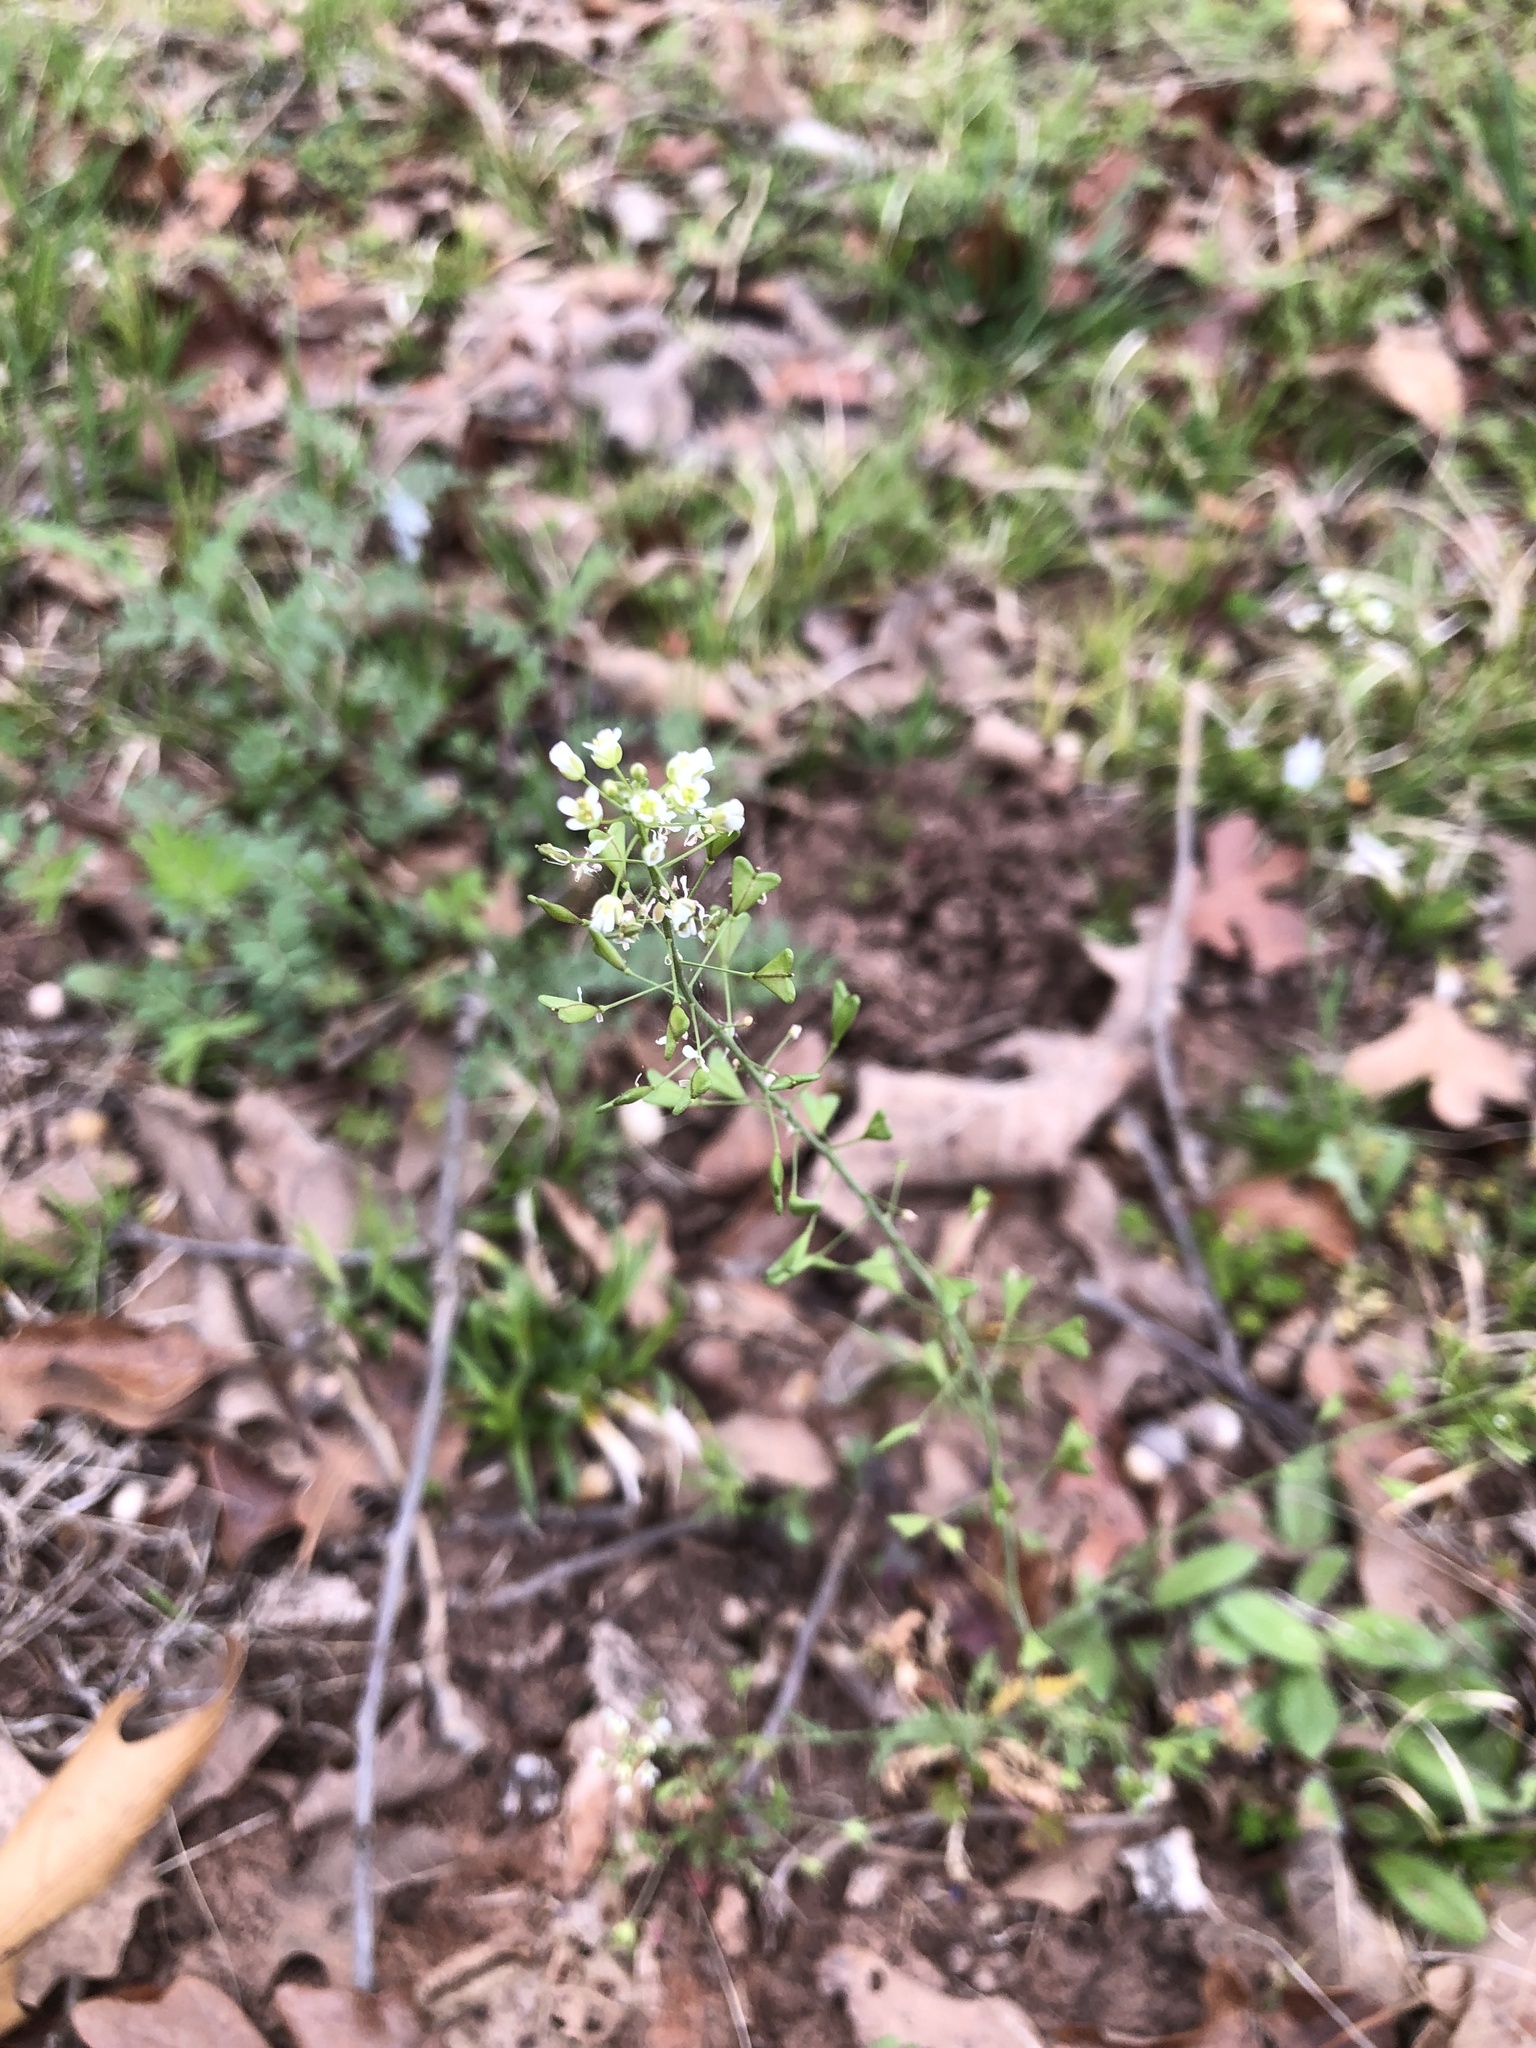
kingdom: Plantae
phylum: Tracheophyta
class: Magnoliopsida
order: Brassicales
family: Brassicaceae
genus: Capsella
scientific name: Capsella bursa-pastoris
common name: Shepherd's purse
